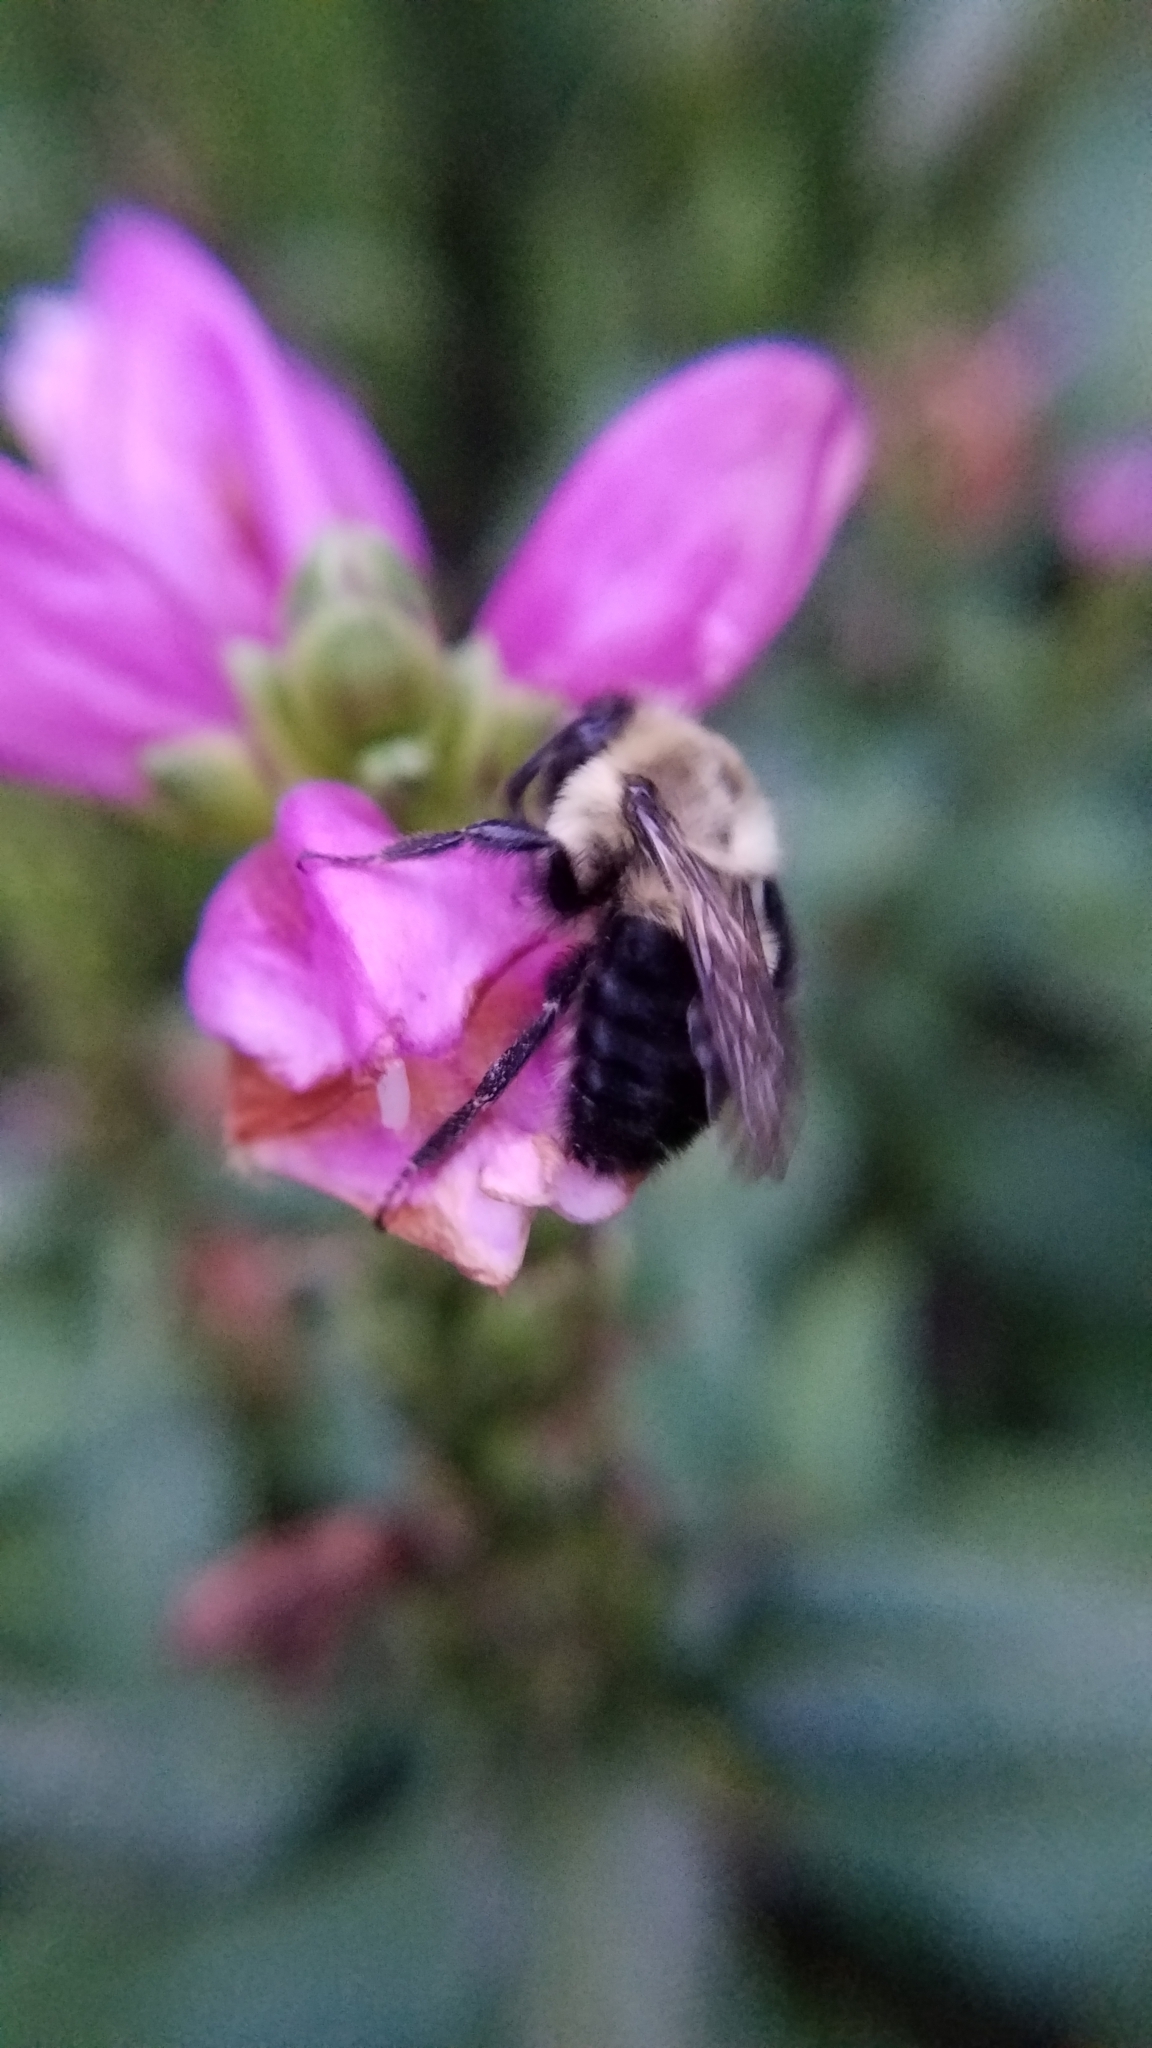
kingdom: Animalia
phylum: Arthropoda
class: Insecta
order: Hymenoptera
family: Apidae
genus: Bombus
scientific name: Bombus impatiens
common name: Common eastern bumble bee
